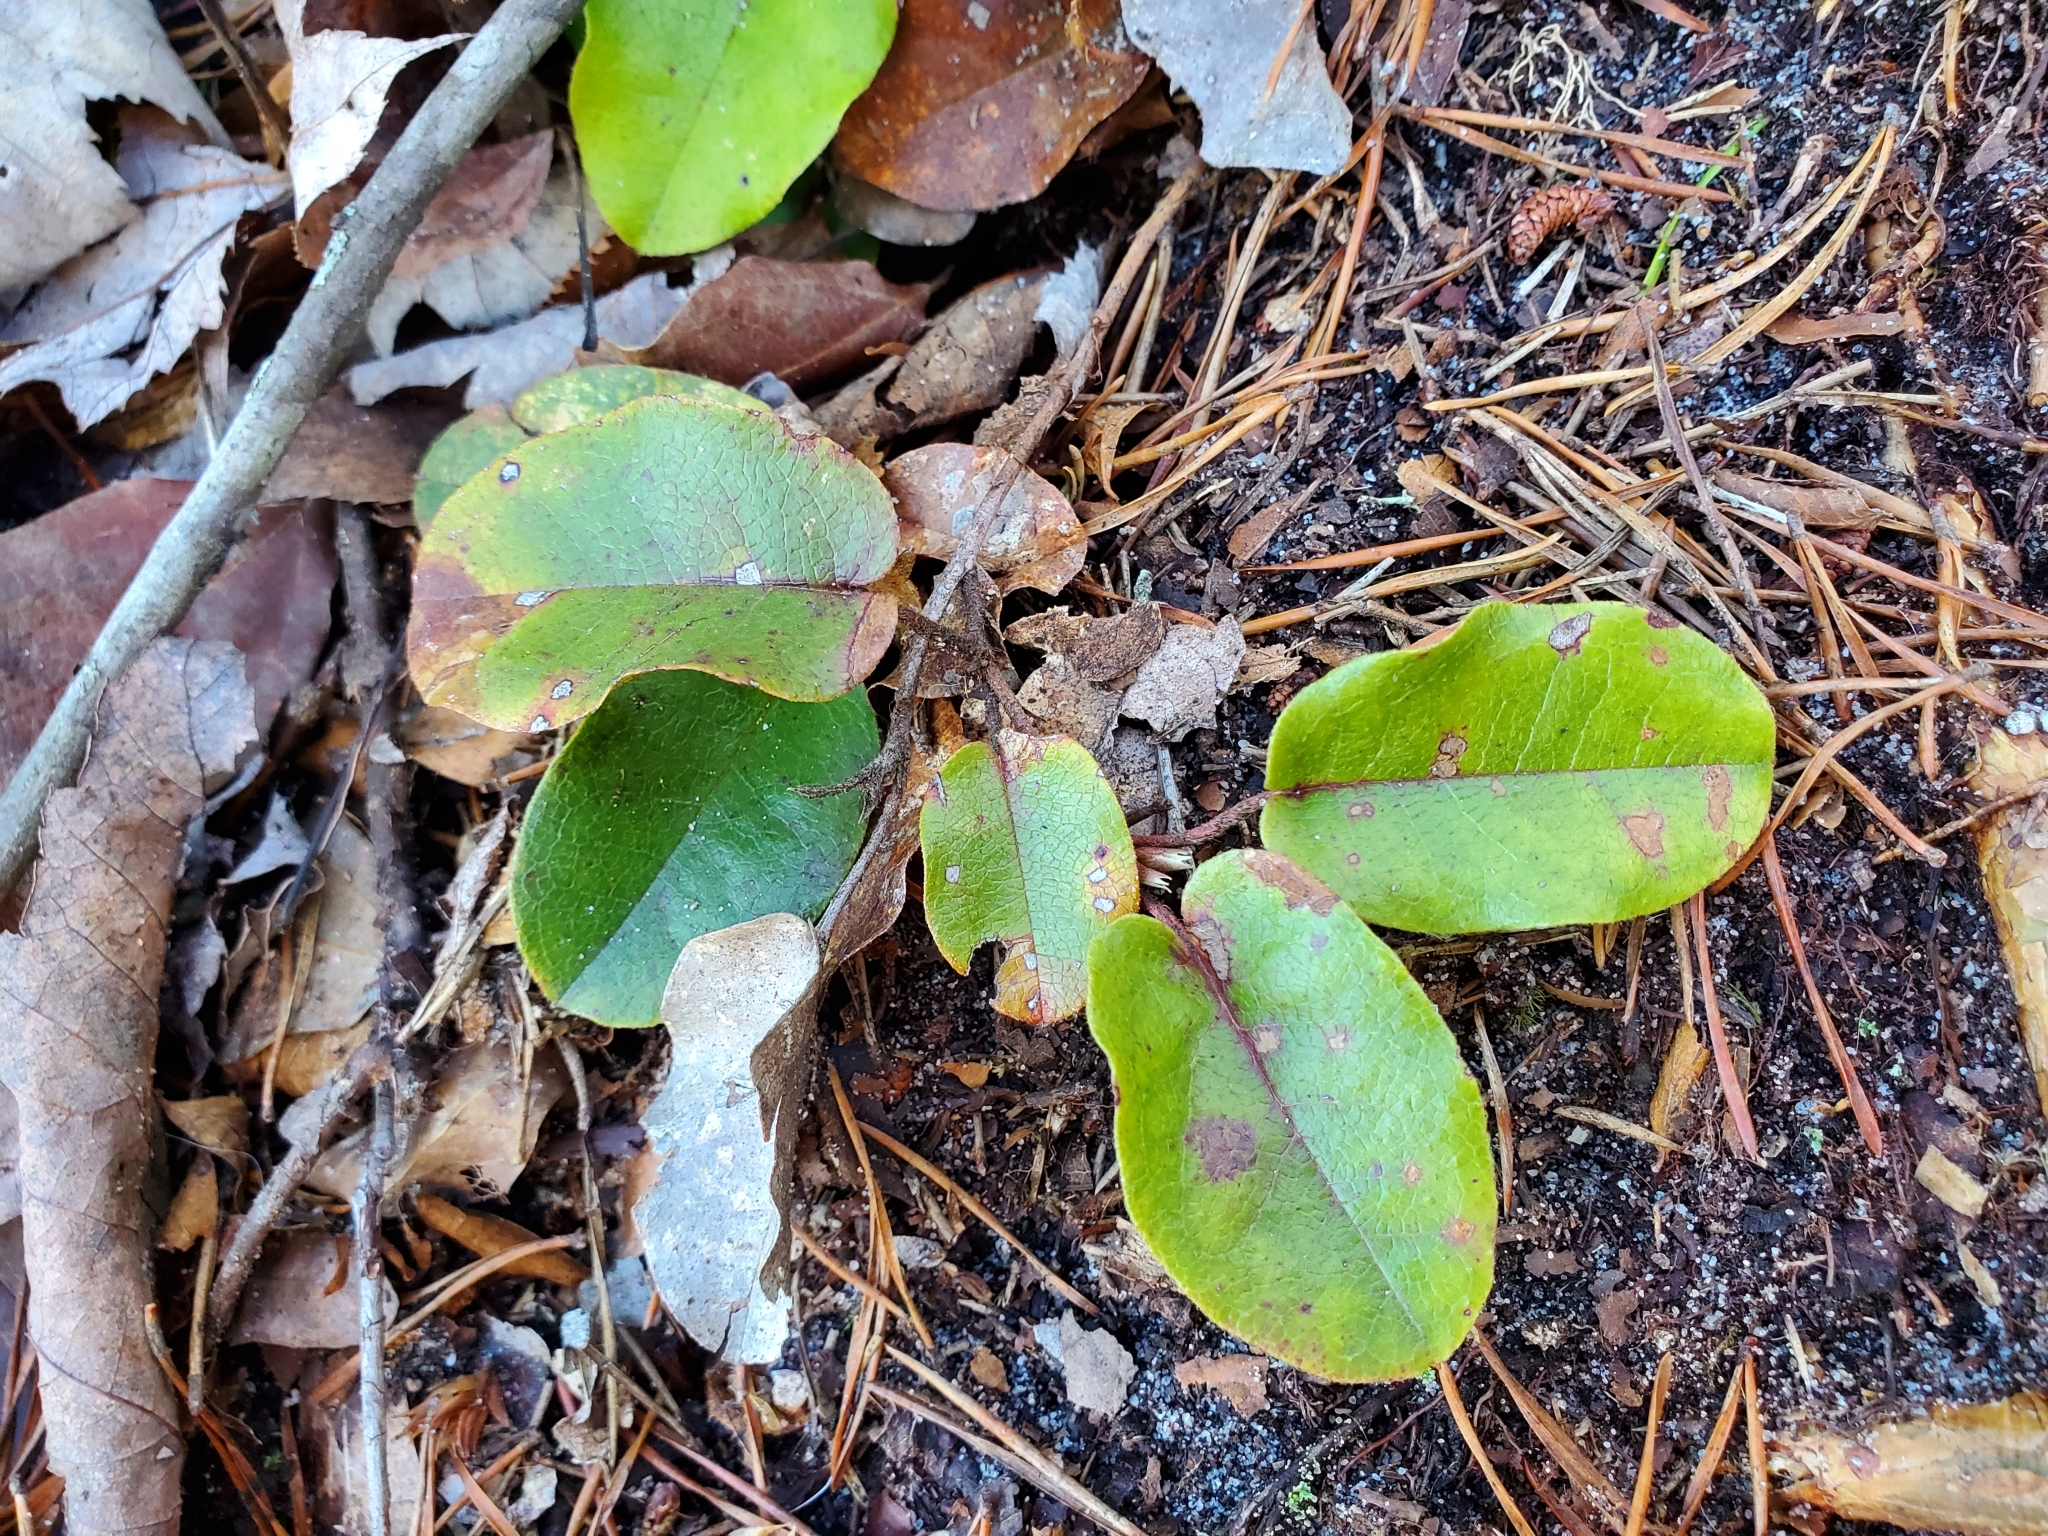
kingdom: Plantae
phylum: Tracheophyta
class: Magnoliopsida
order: Ericales
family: Ericaceae
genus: Epigaea
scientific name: Epigaea repens
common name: Gravelroot
